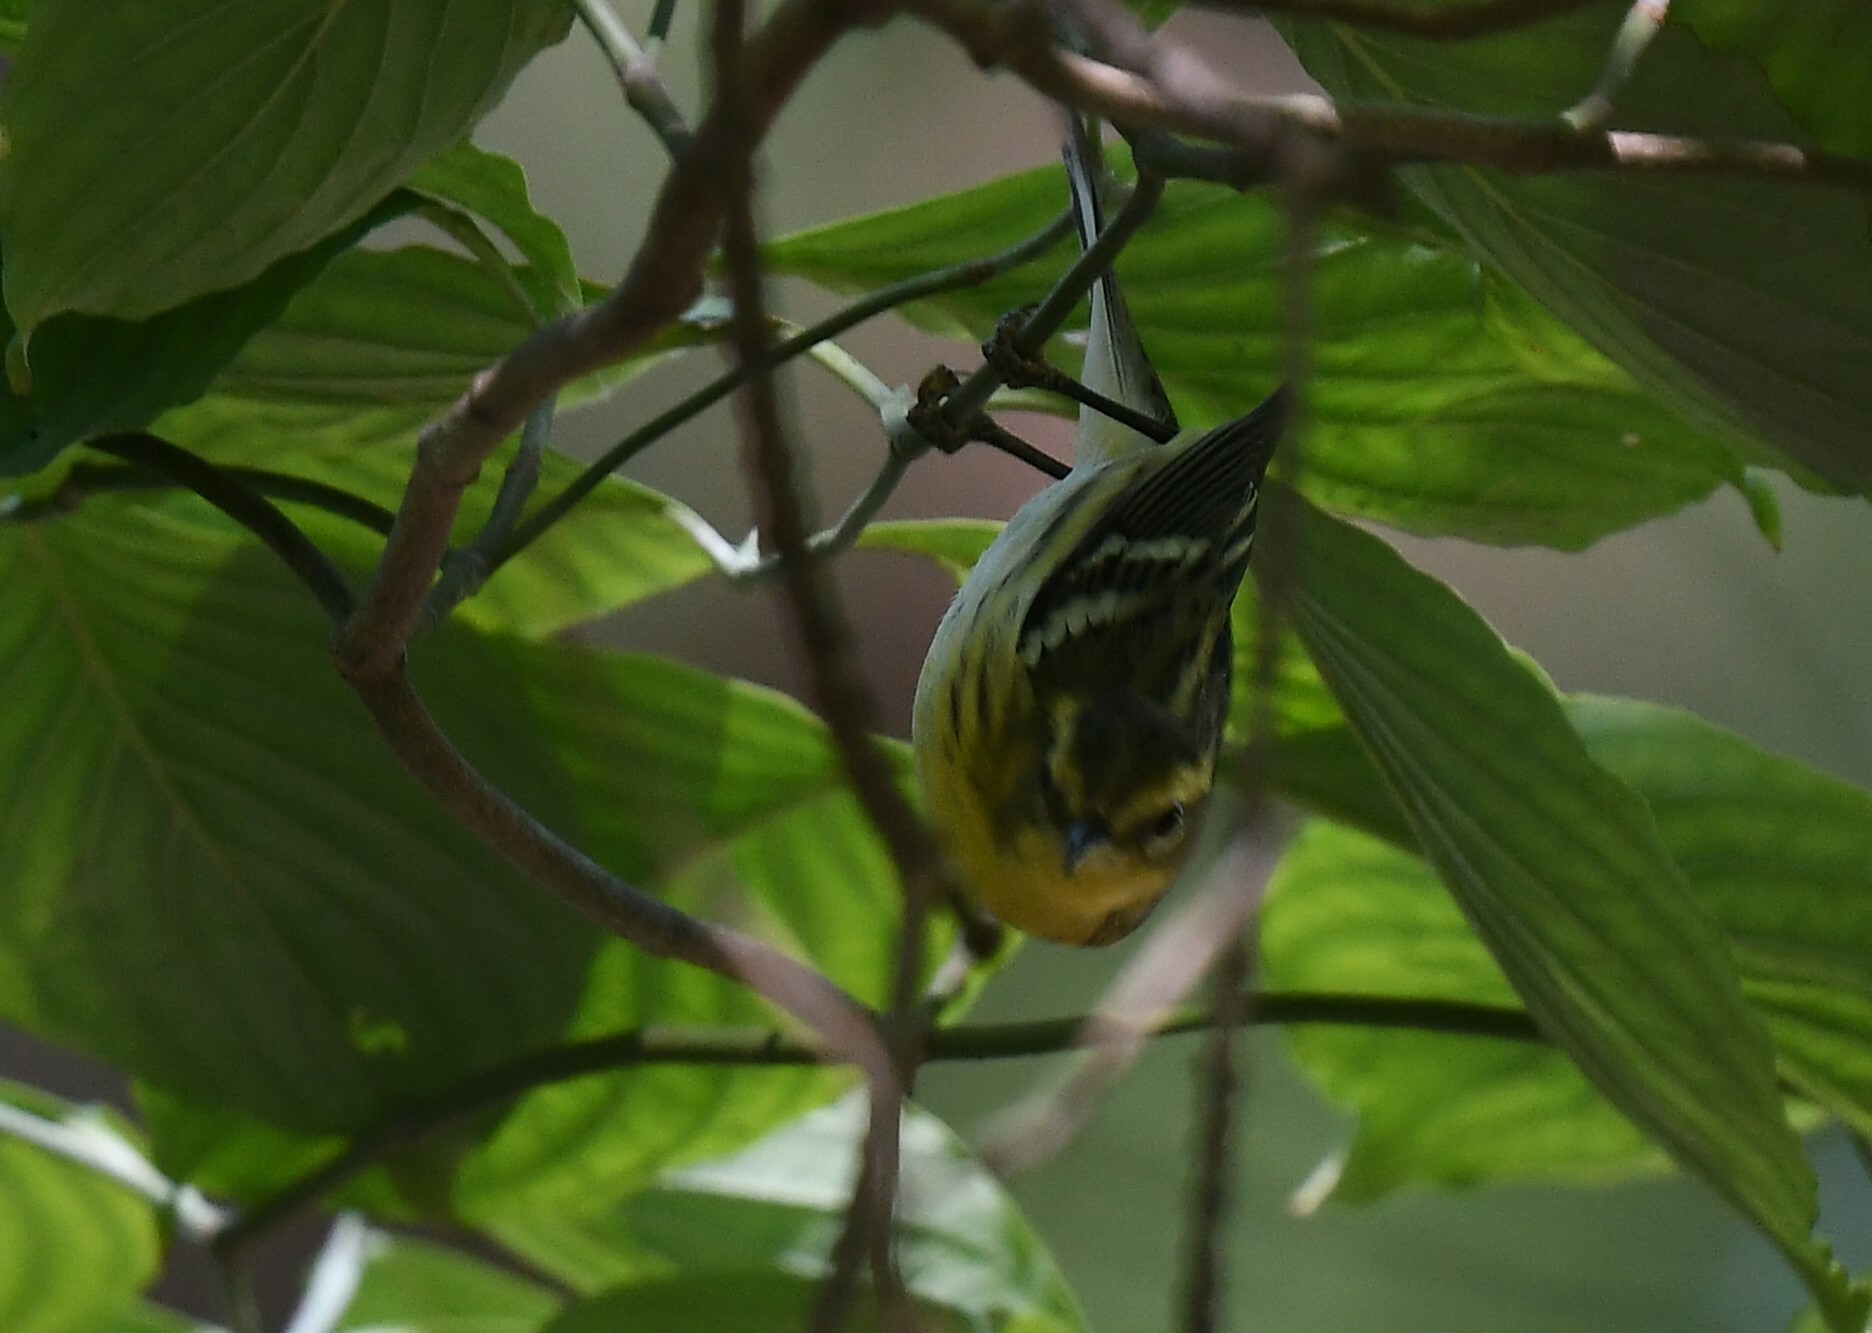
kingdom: Animalia
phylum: Chordata
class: Aves
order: Passeriformes
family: Parulidae
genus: Setophaga
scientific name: Setophaga fusca
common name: Blackburnian warbler
